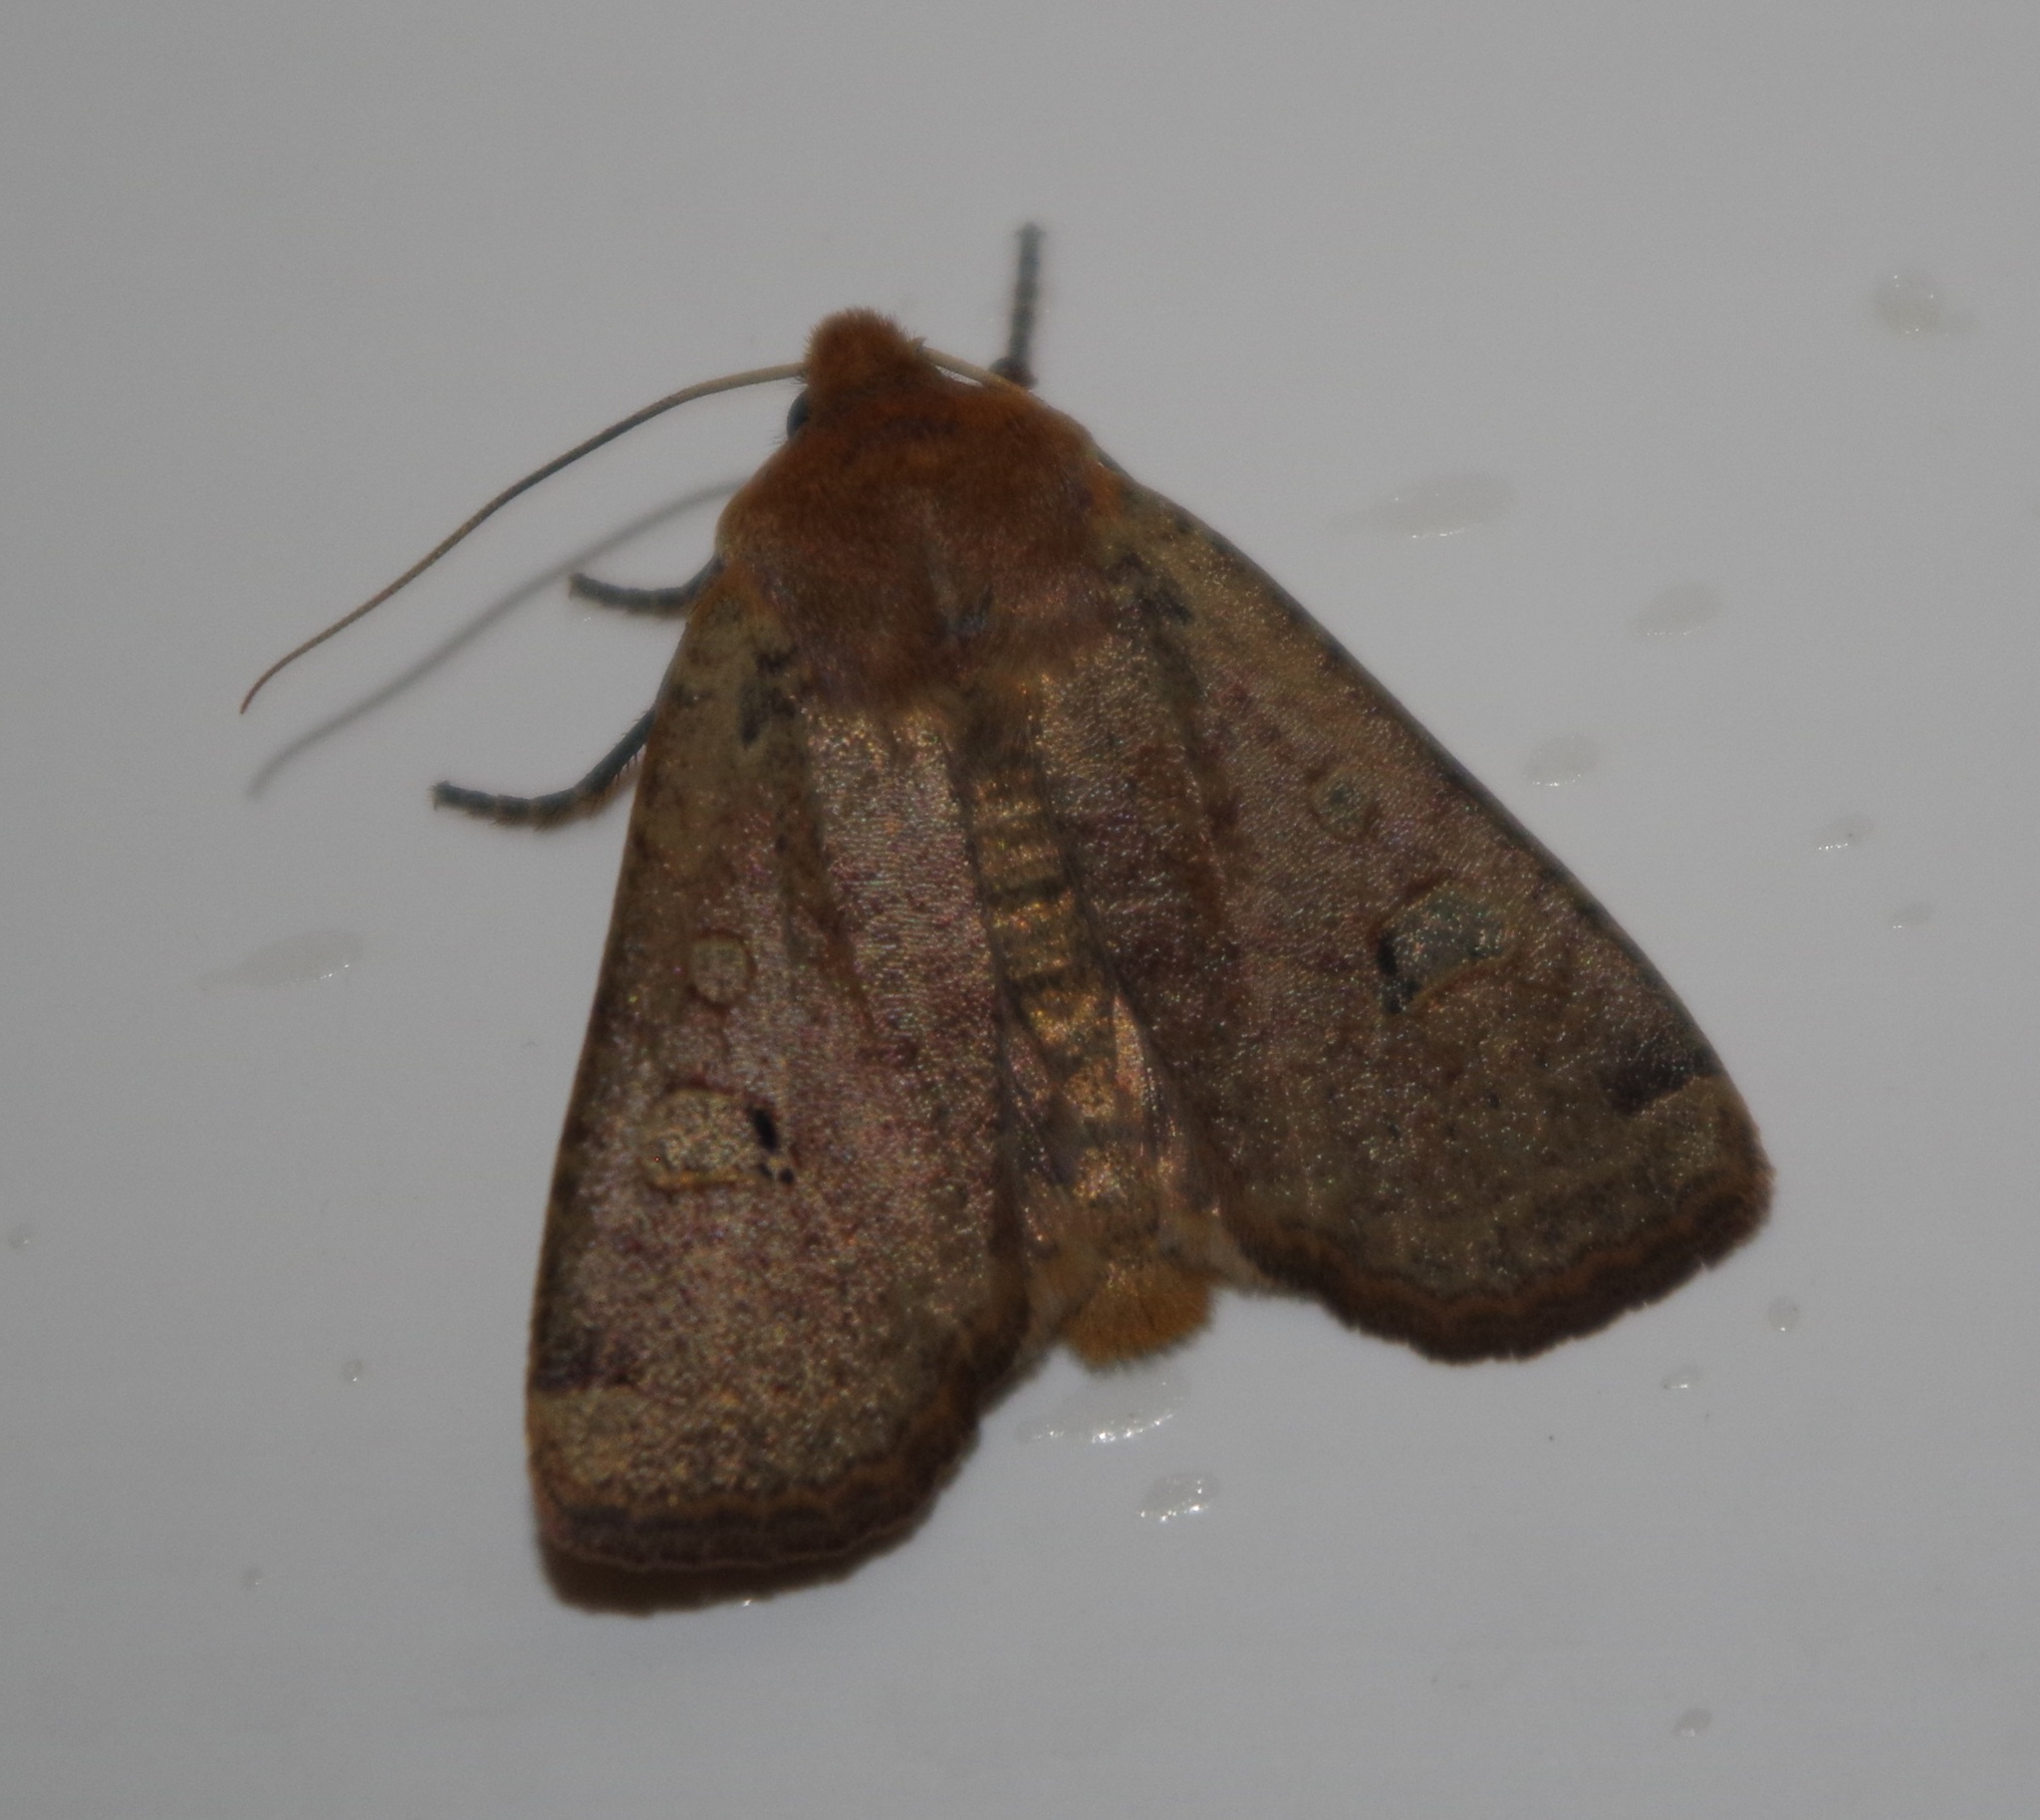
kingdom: Animalia
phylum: Arthropoda
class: Insecta
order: Lepidoptera
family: Noctuidae
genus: Conistra
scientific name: Conistra erythrocephala
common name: Red-headed chestnut
